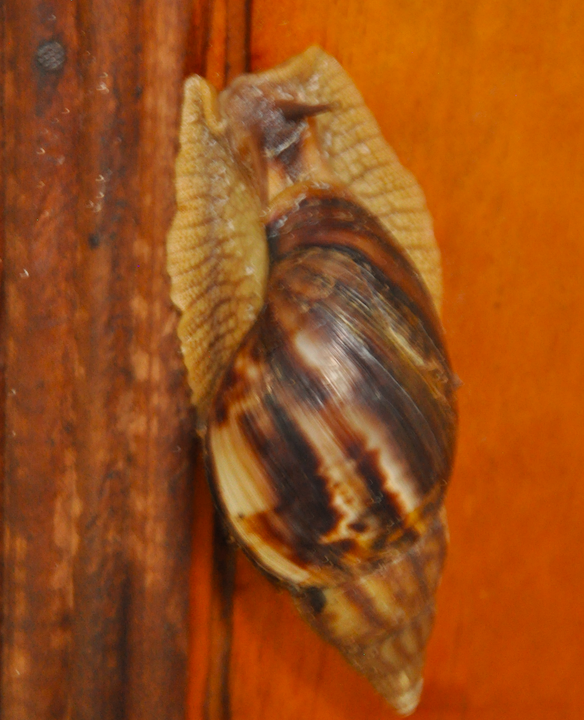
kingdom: Animalia
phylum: Mollusca
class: Gastropoda
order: Stylommatophora
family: Achatinidae
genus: Lissachatina
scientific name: Lissachatina immaculata
